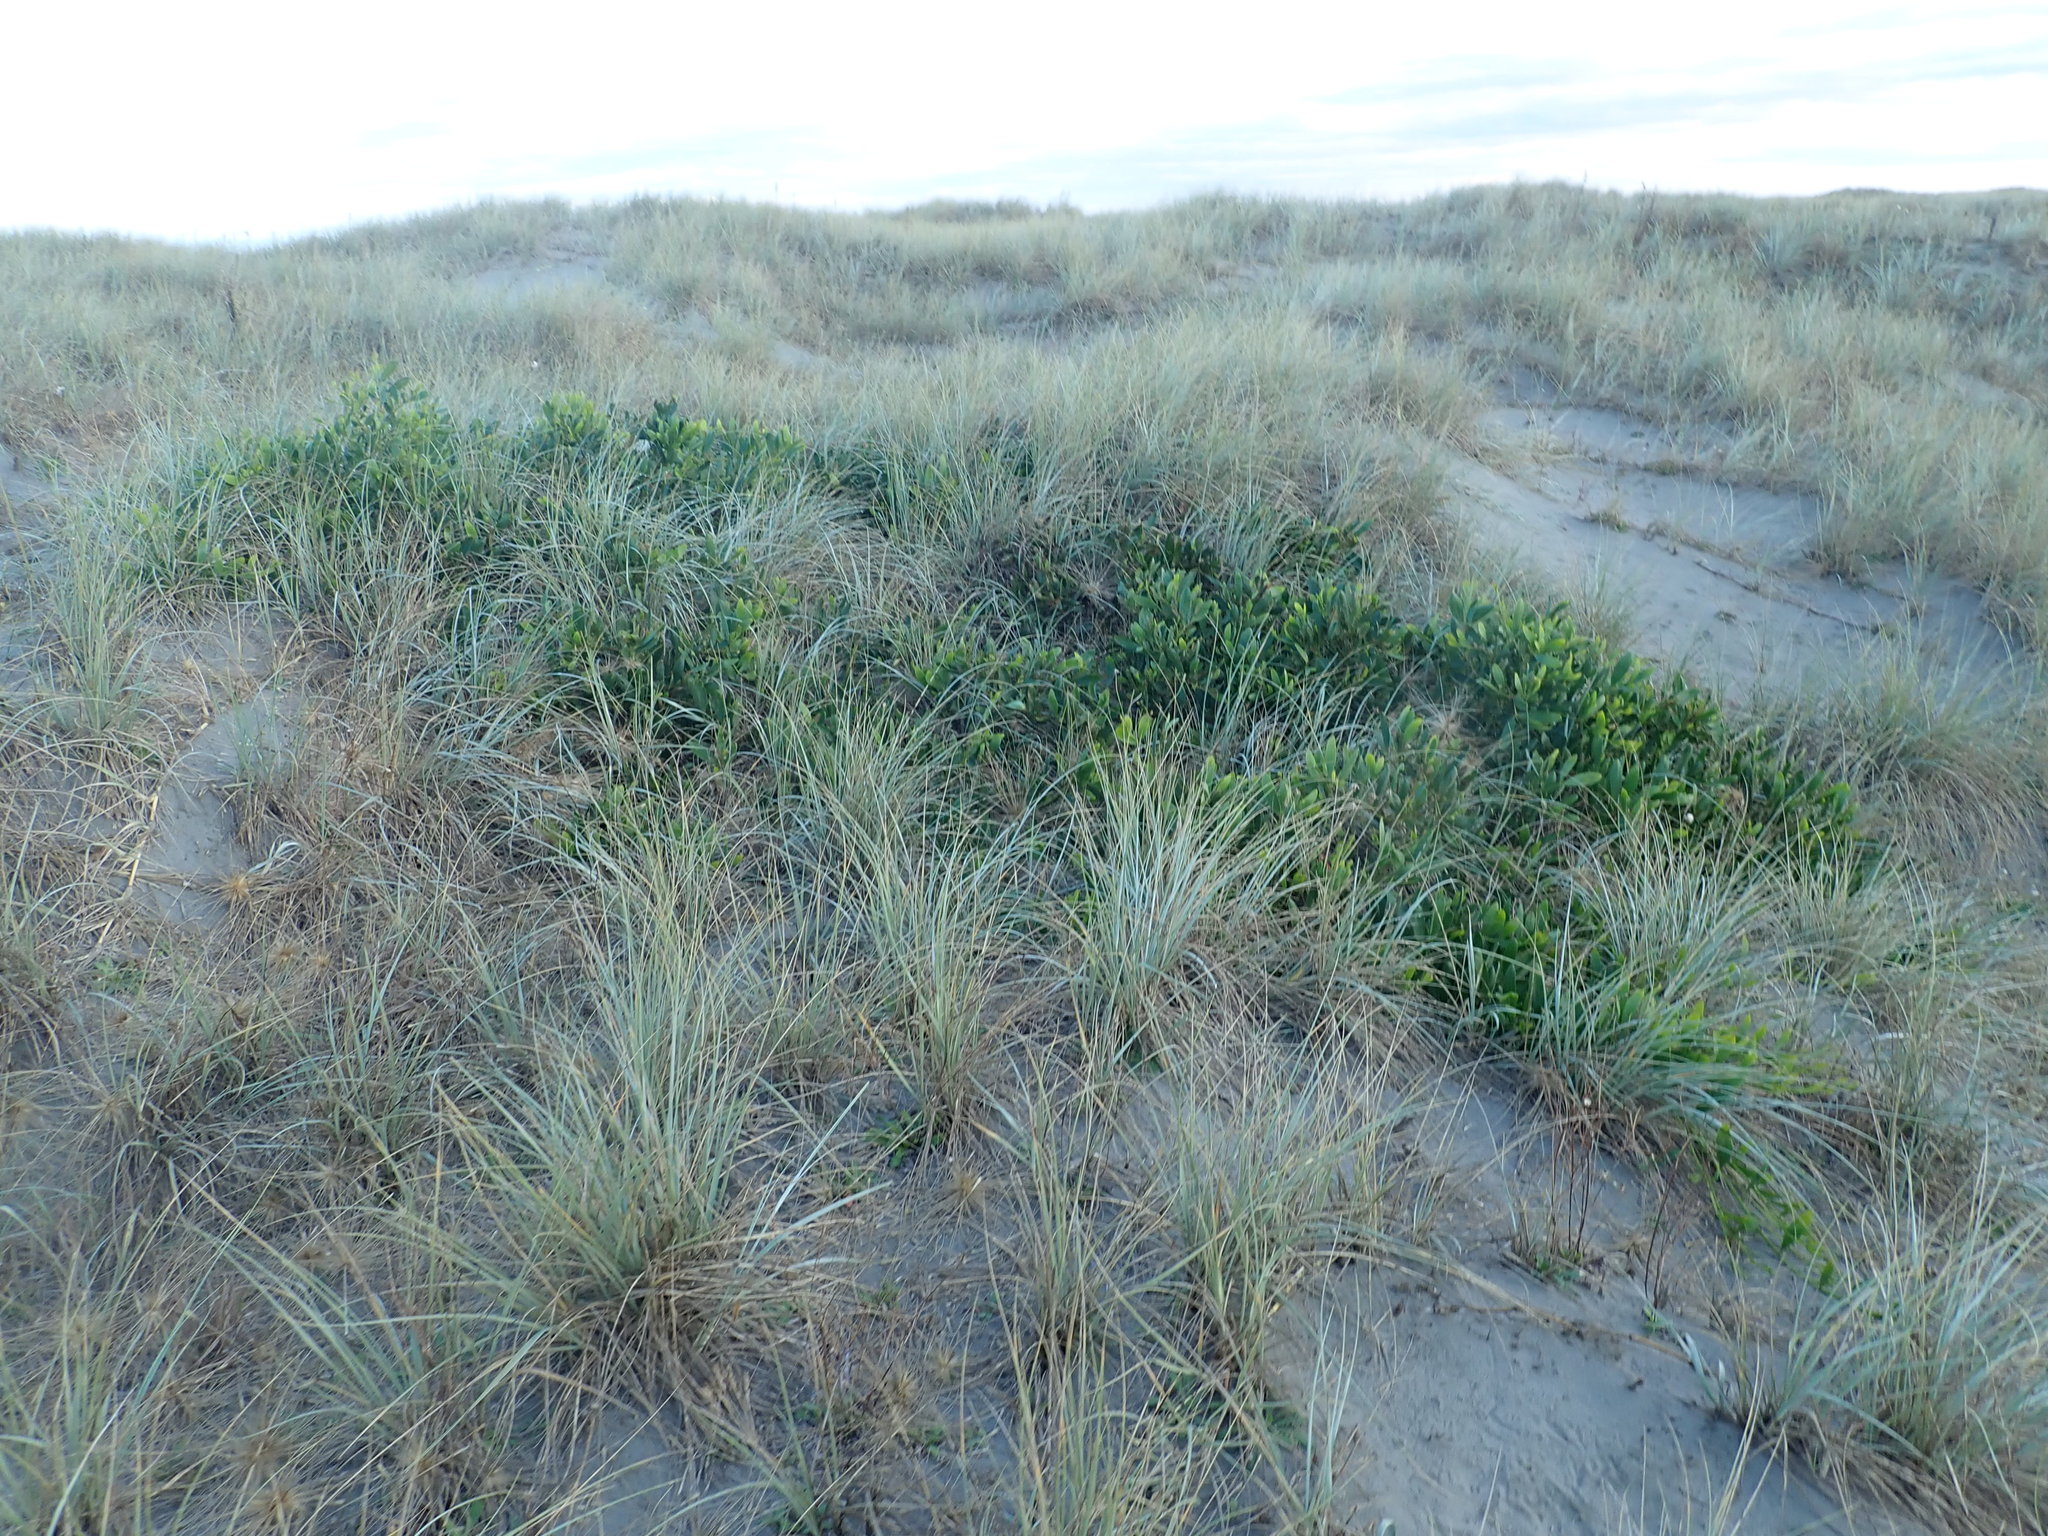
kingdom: Plantae
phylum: Tracheophyta
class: Magnoliopsida
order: Fabales
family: Fabaceae
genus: Acacia
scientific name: Acacia longifolia
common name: Sydney golden wattle
